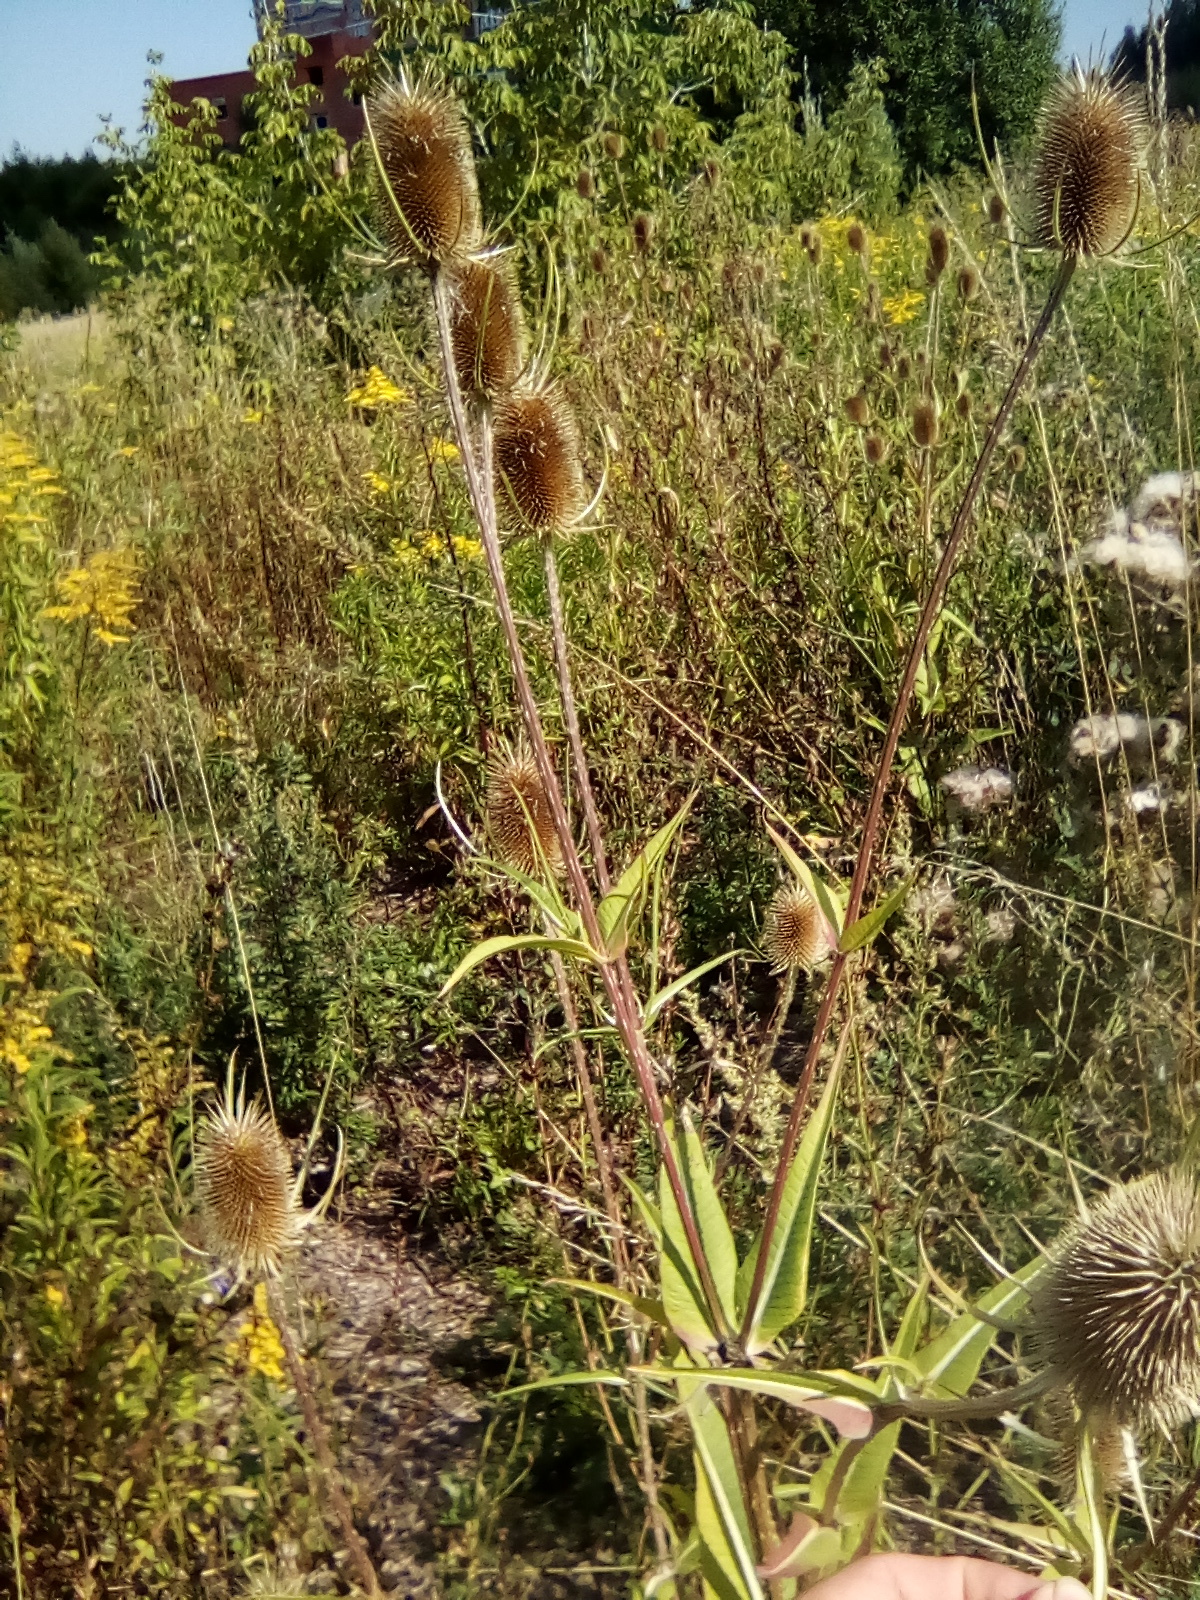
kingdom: Plantae
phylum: Tracheophyta
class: Magnoliopsida
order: Dipsacales
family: Caprifoliaceae
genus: Dipsacus
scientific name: Dipsacus fullonum
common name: Teasel
